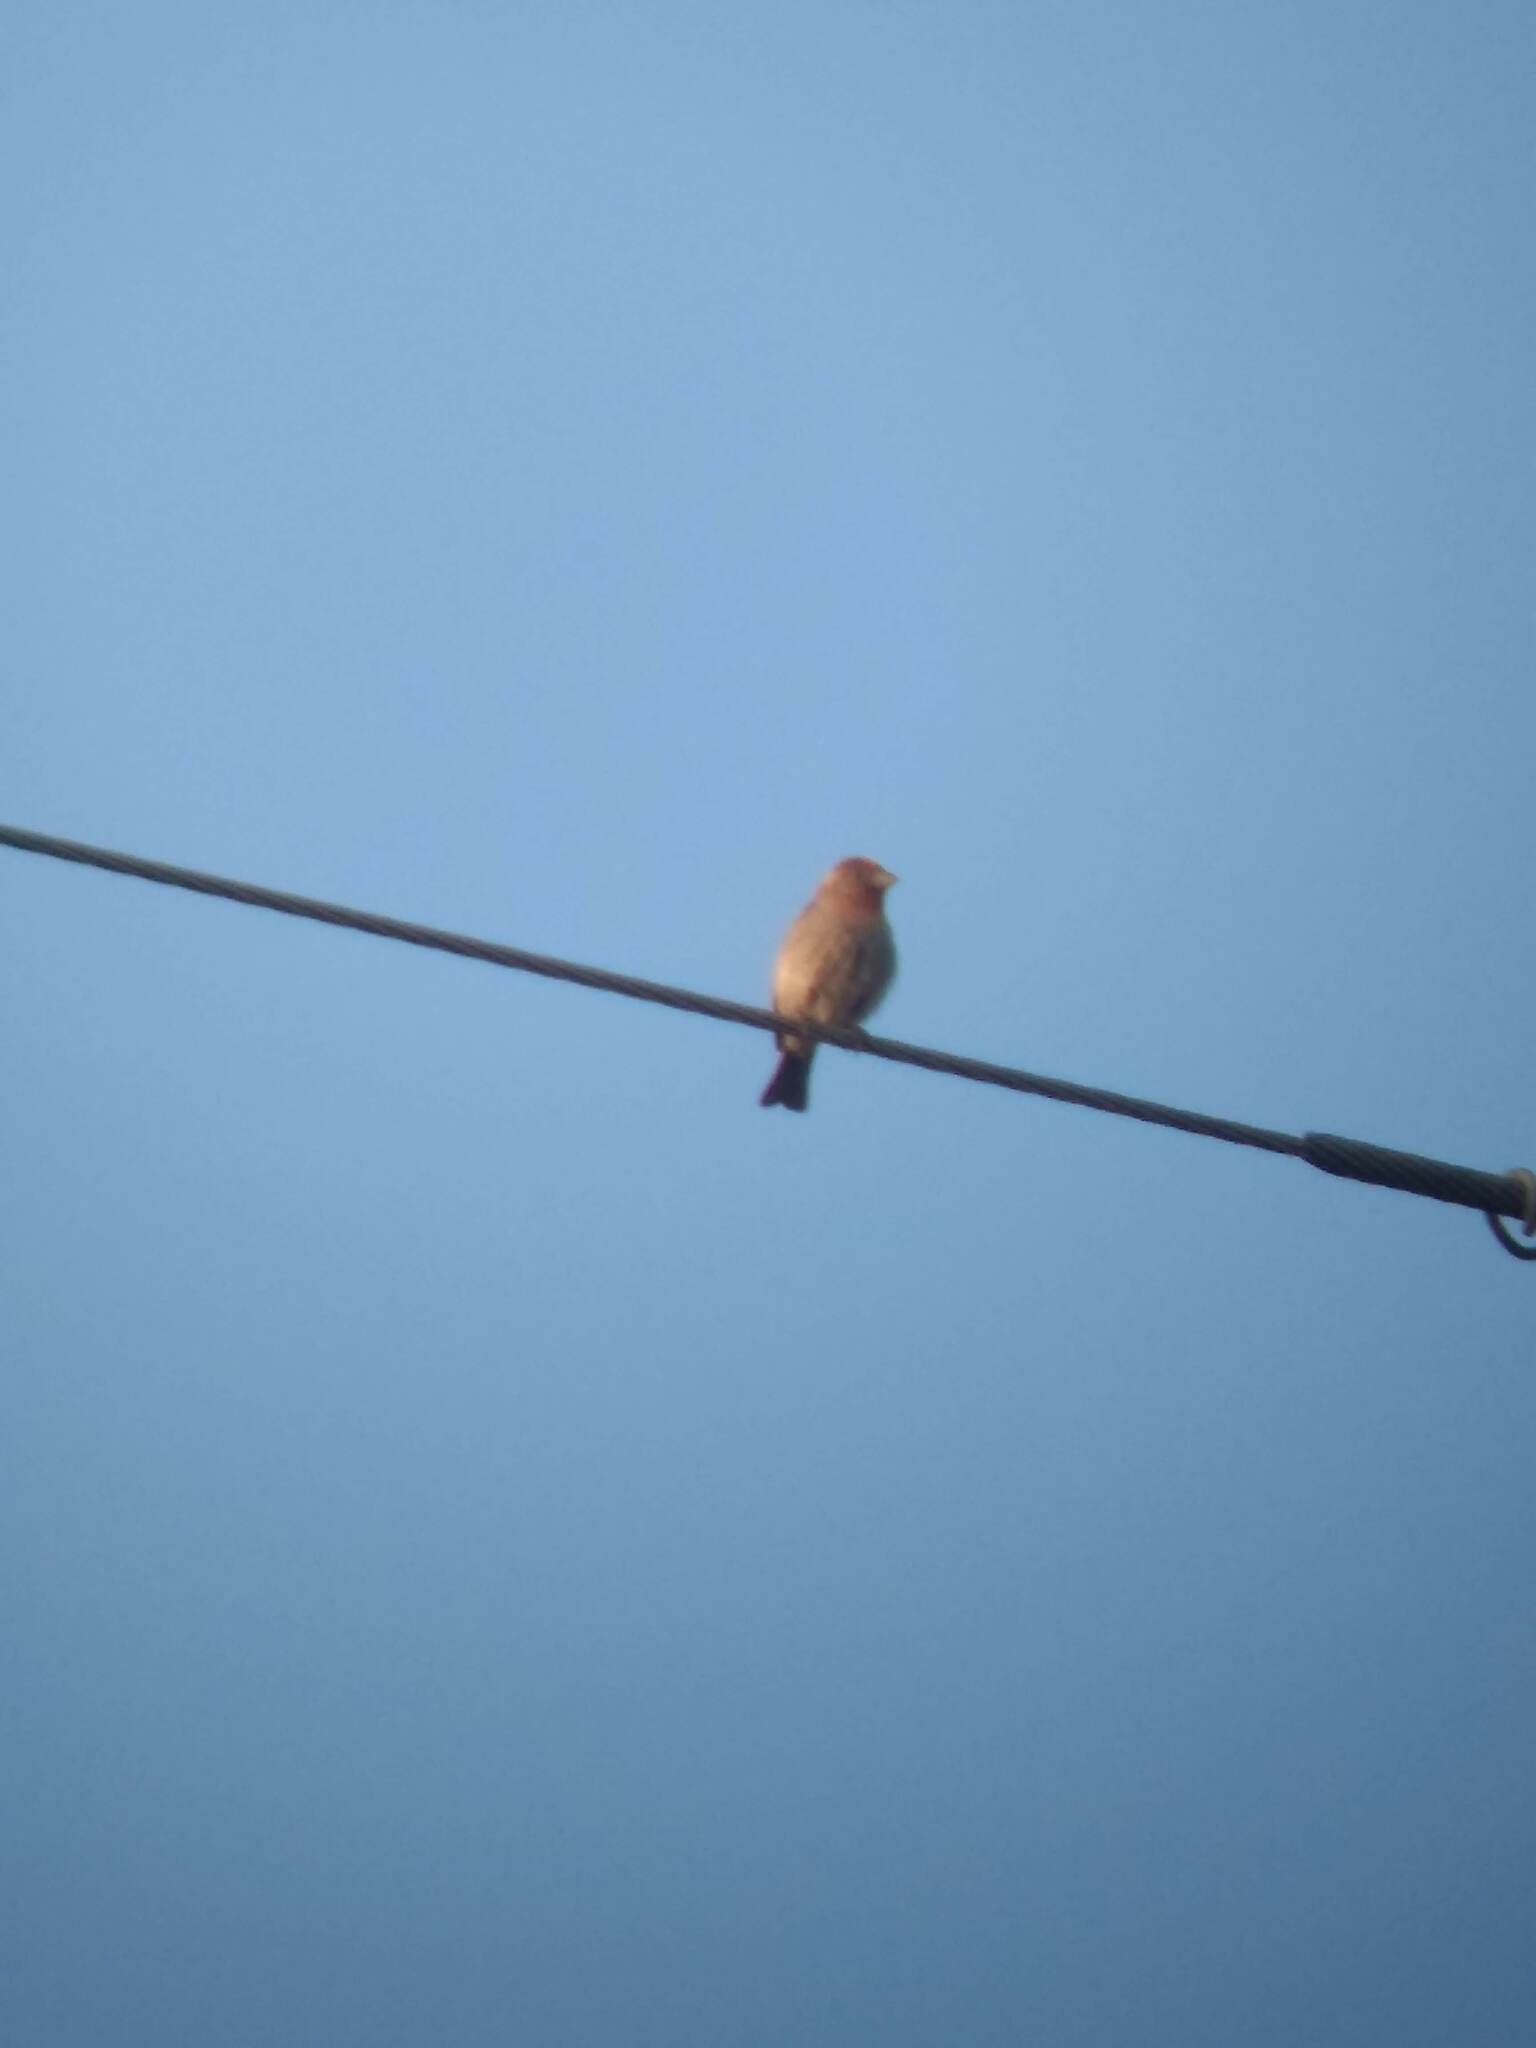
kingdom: Animalia
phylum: Chordata
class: Aves
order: Passeriformes
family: Fringillidae
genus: Haemorhous
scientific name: Haemorhous mexicanus
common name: House finch
